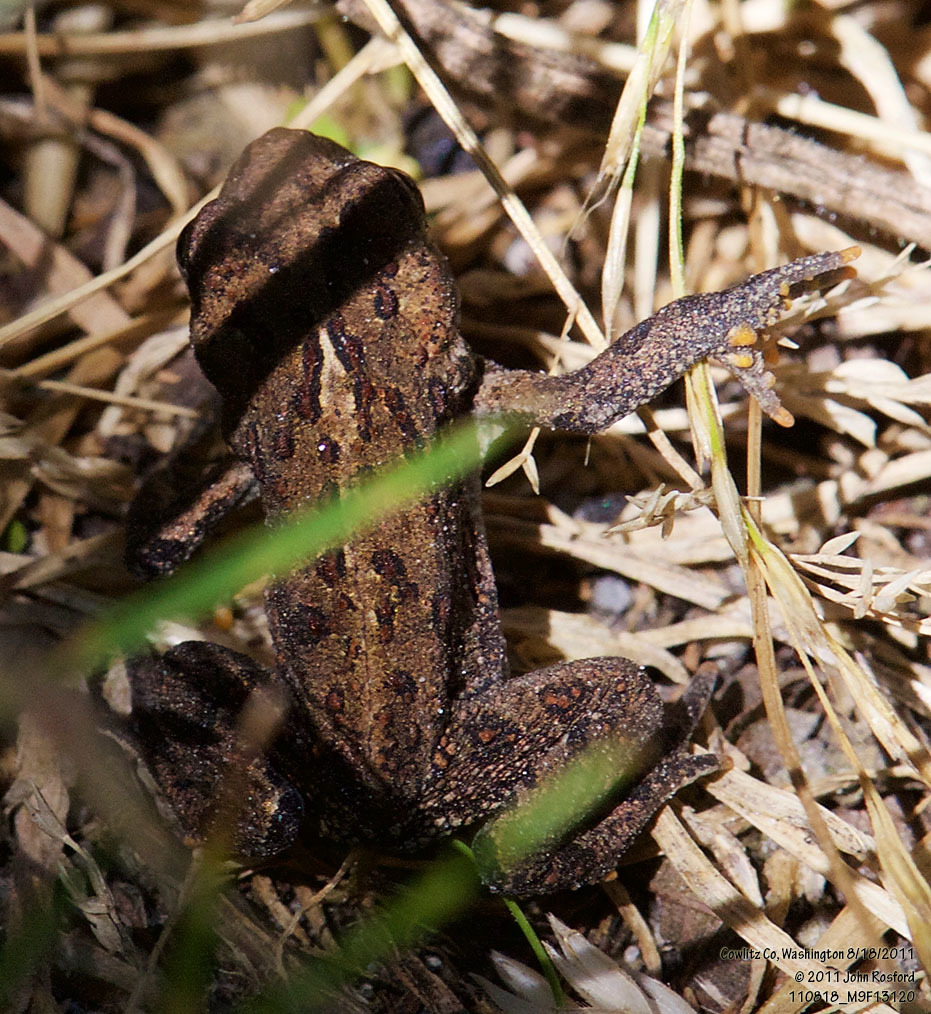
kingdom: Animalia
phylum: Chordata
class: Amphibia
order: Anura
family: Bufonidae
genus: Anaxyrus
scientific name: Anaxyrus boreas
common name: Western toad
